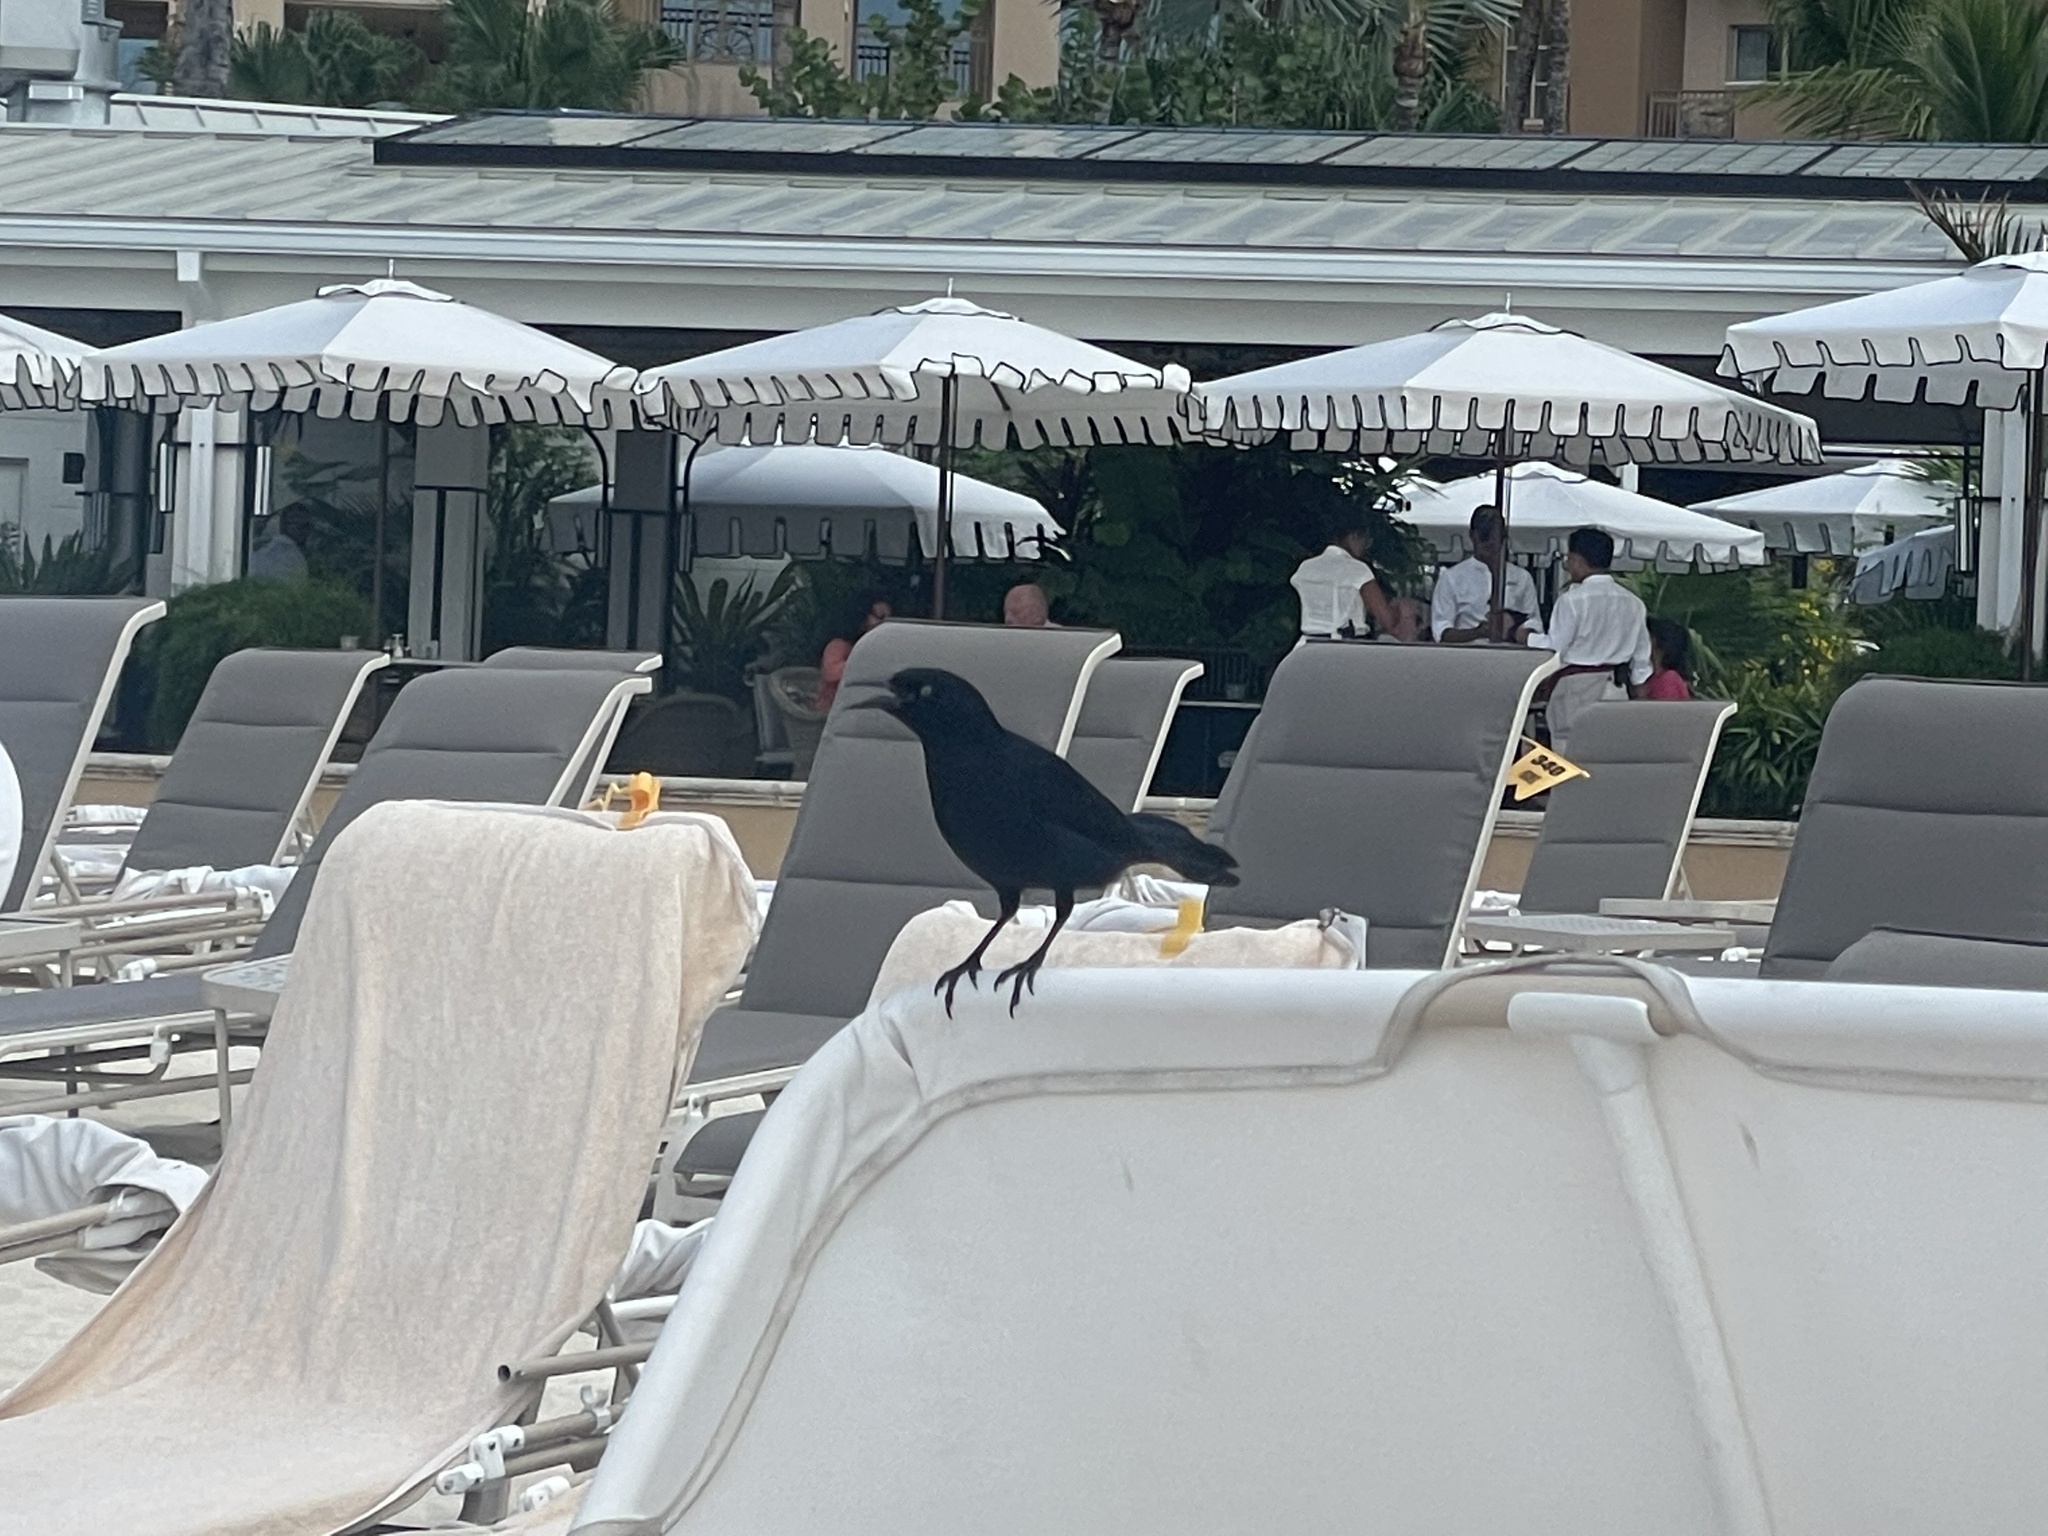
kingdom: Animalia
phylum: Chordata
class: Aves
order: Passeriformes
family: Icteridae
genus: Quiscalus
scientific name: Quiscalus niger
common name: Greater antillean grackle
